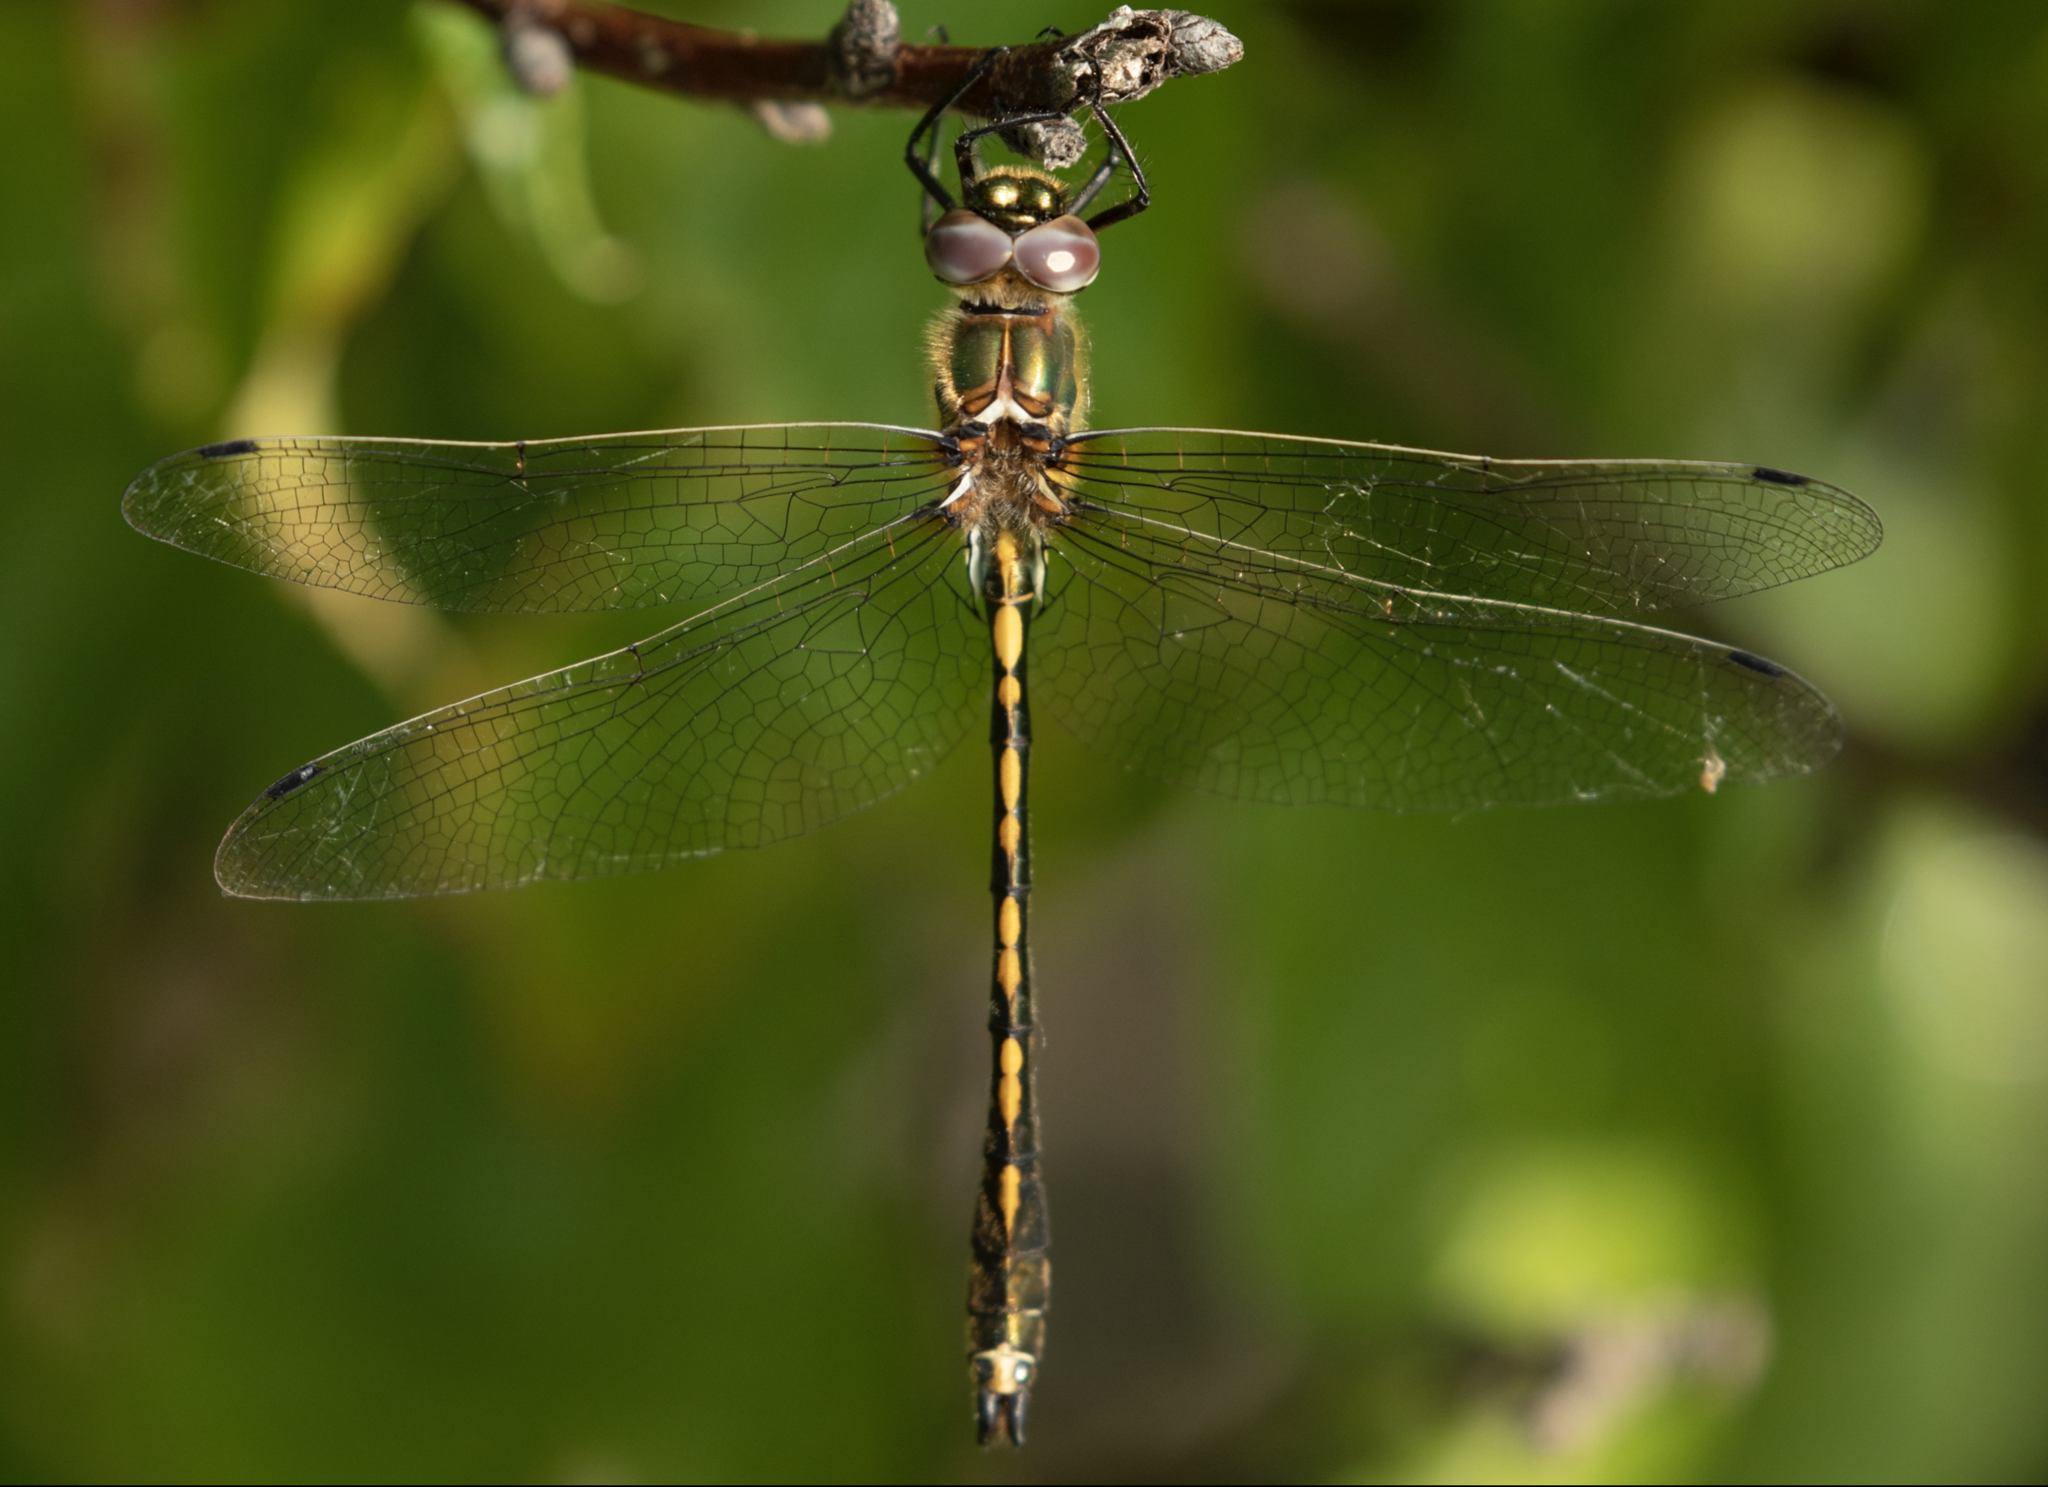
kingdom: Animalia
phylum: Arthropoda
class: Insecta
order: Odonata
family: Corduliidae
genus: Oxygastra
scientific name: Oxygastra curtisii
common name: Orange-spotted emerald
